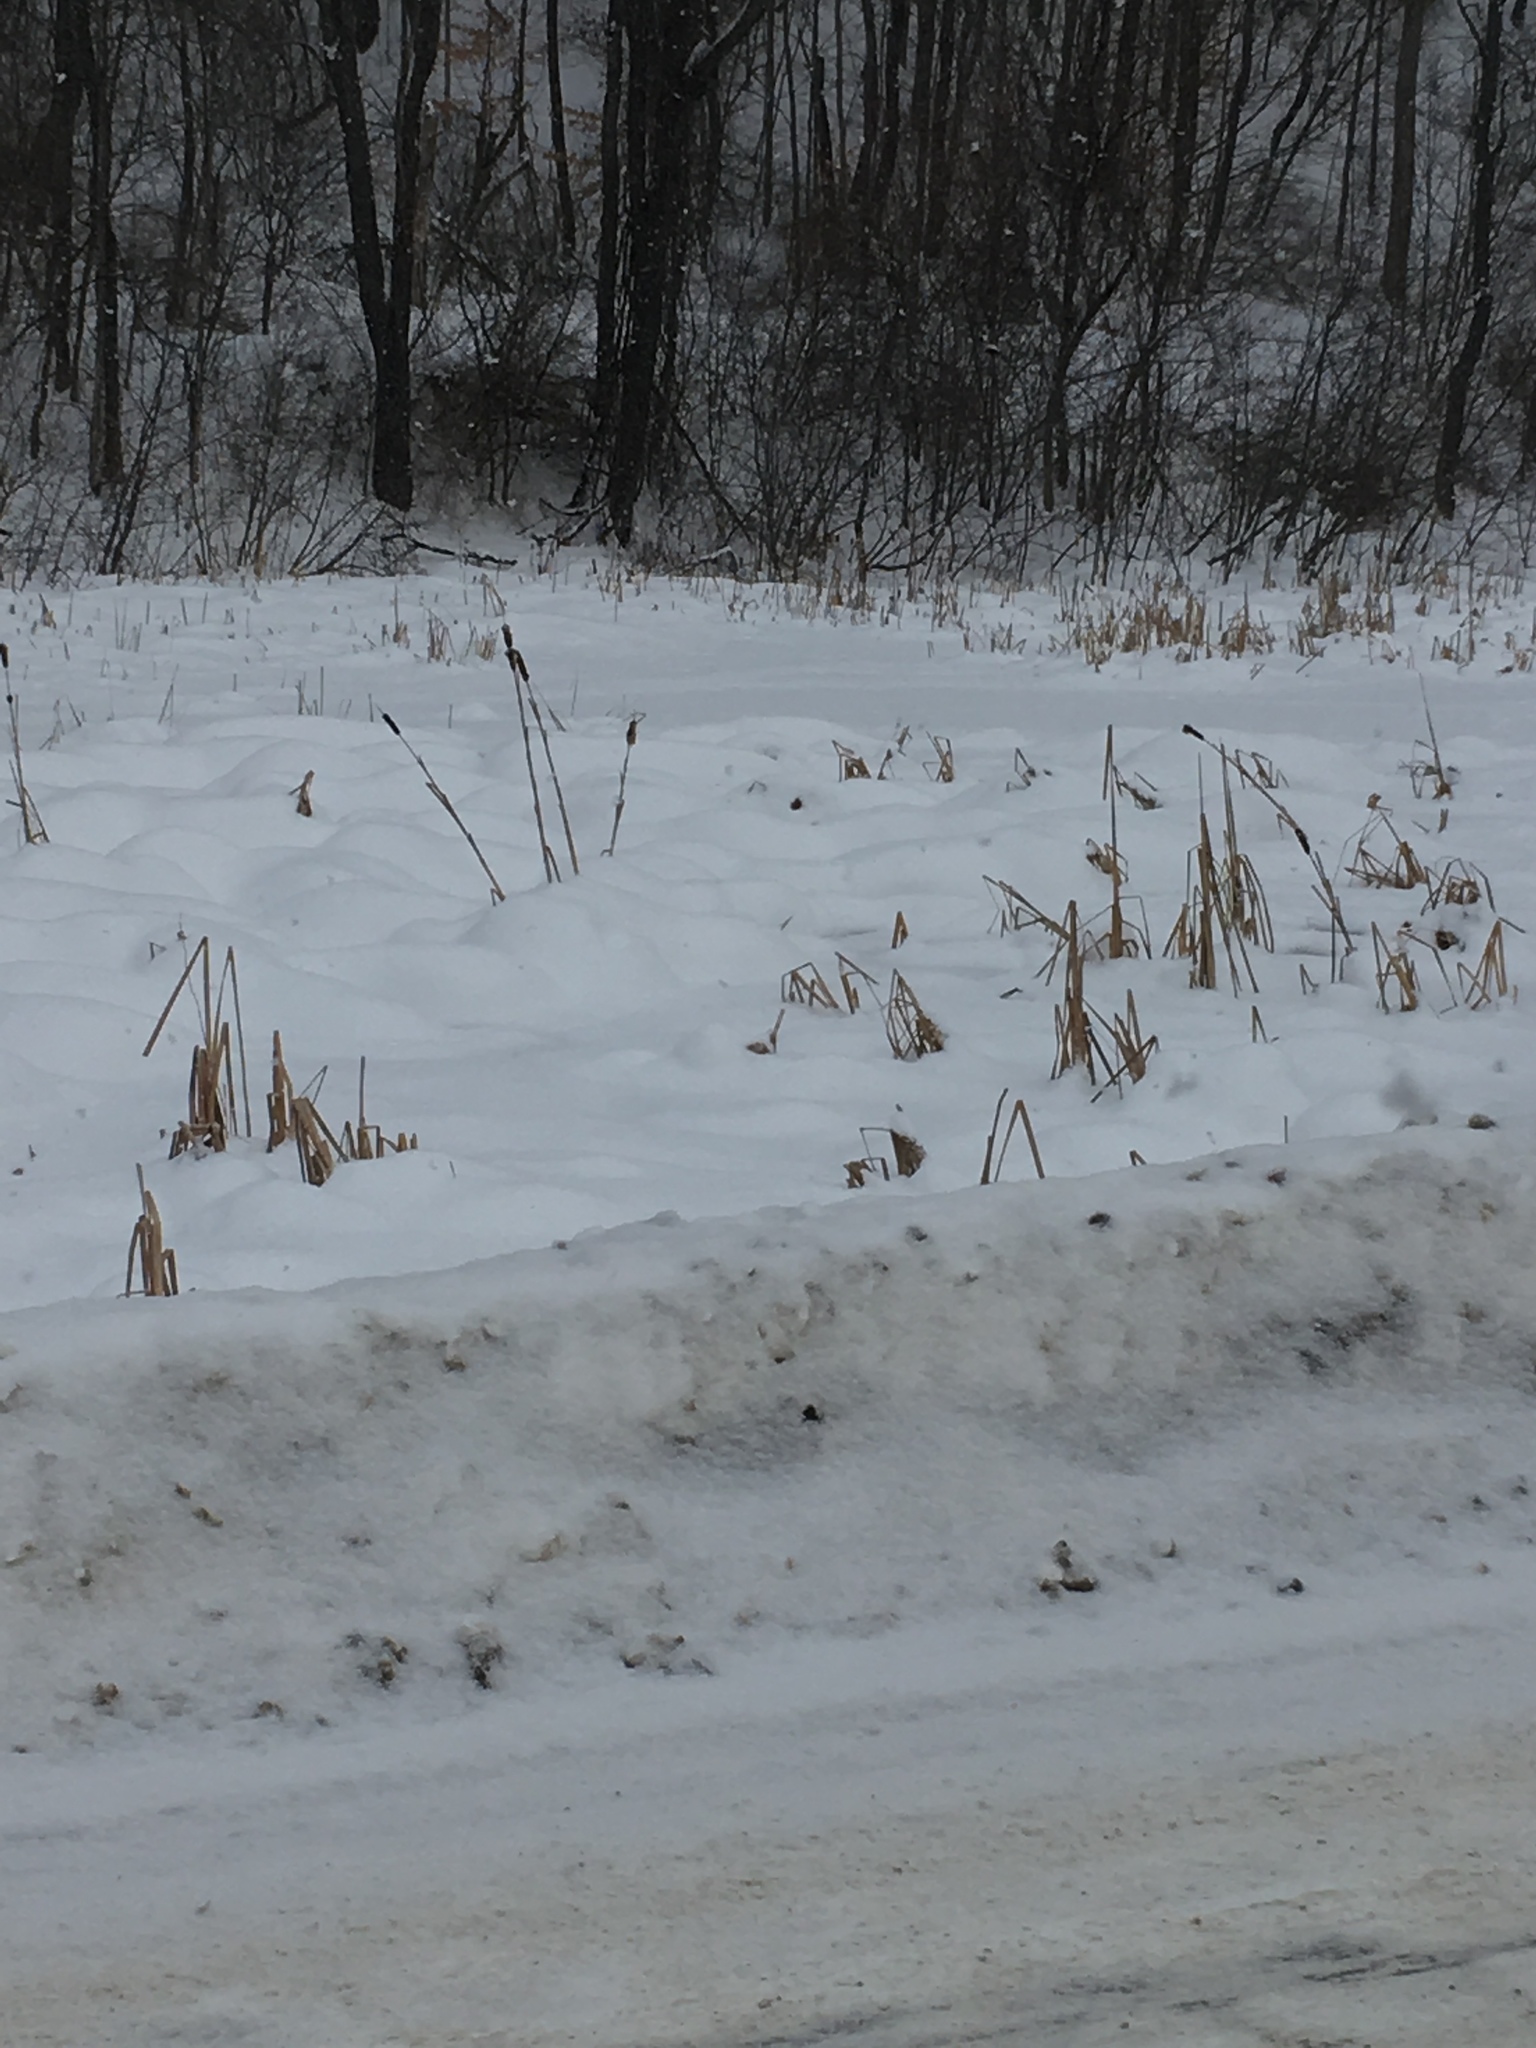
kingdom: Plantae
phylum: Tracheophyta
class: Liliopsida
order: Poales
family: Typhaceae
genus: Typha
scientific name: Typha
